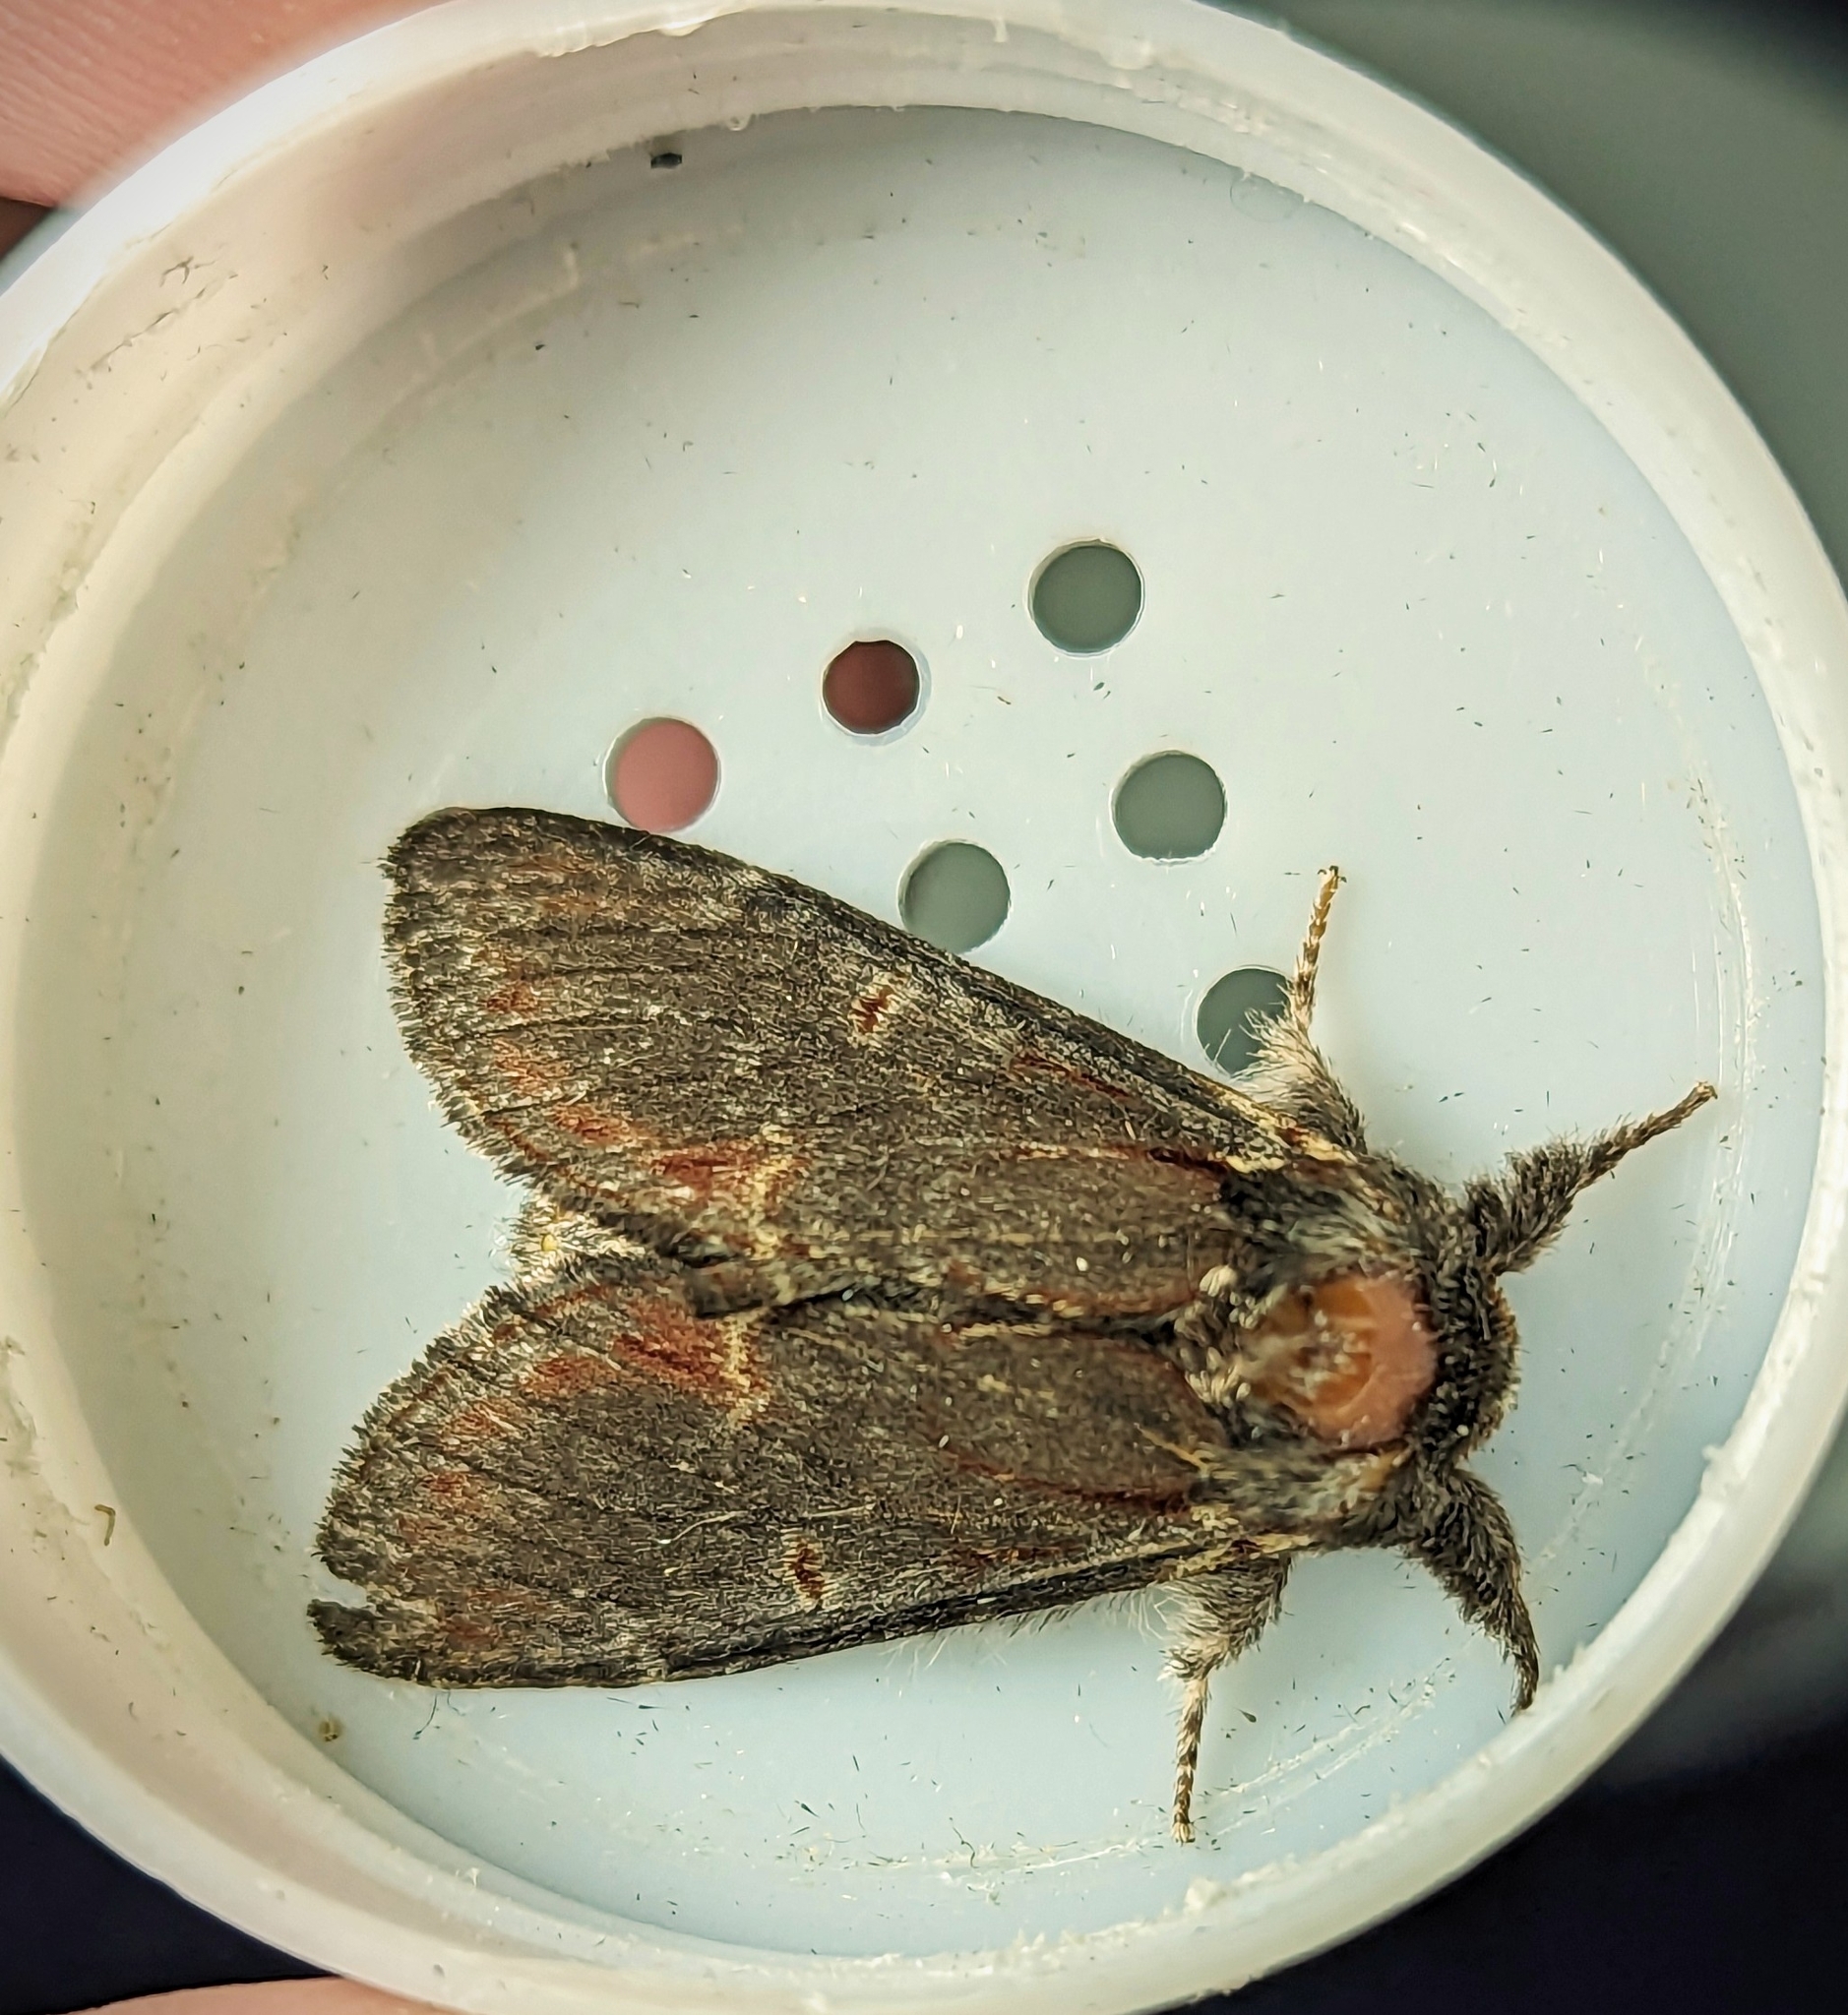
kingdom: Animalia
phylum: Arthropoda
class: Insecta
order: Lepidoptera
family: Notodontidae
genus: Notodonta
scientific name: Notodonta dromedarius
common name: Iron prominent
